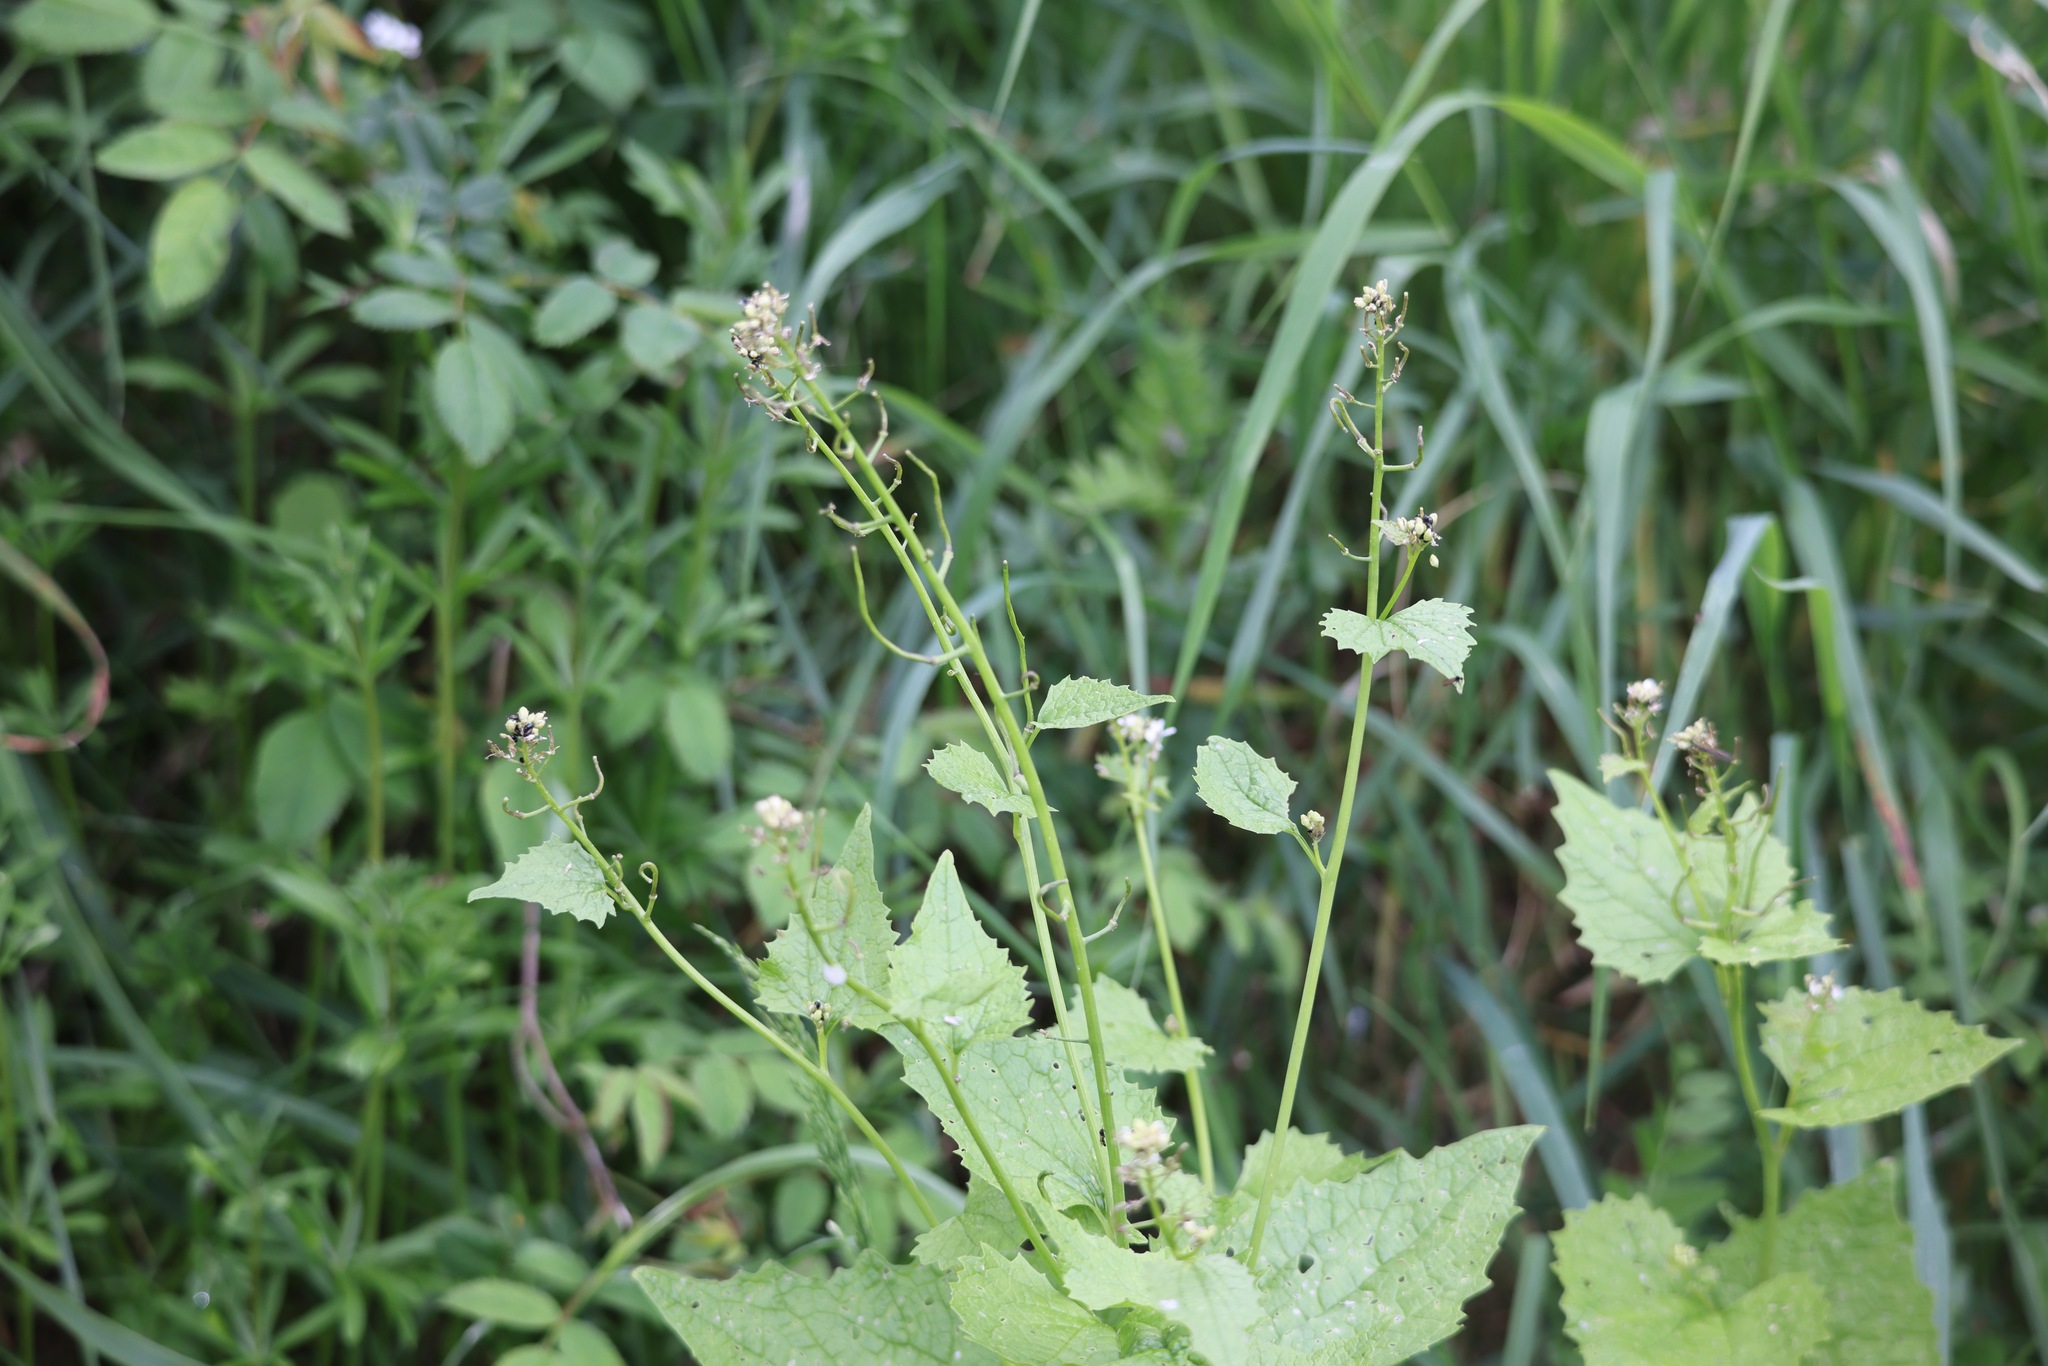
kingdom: Plantae
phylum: Tracheophyta
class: Magnoliopsida
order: Brassicales
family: Brassicaceae
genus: Alliaria
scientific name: Alliaria petiolata
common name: Garlic mustard
